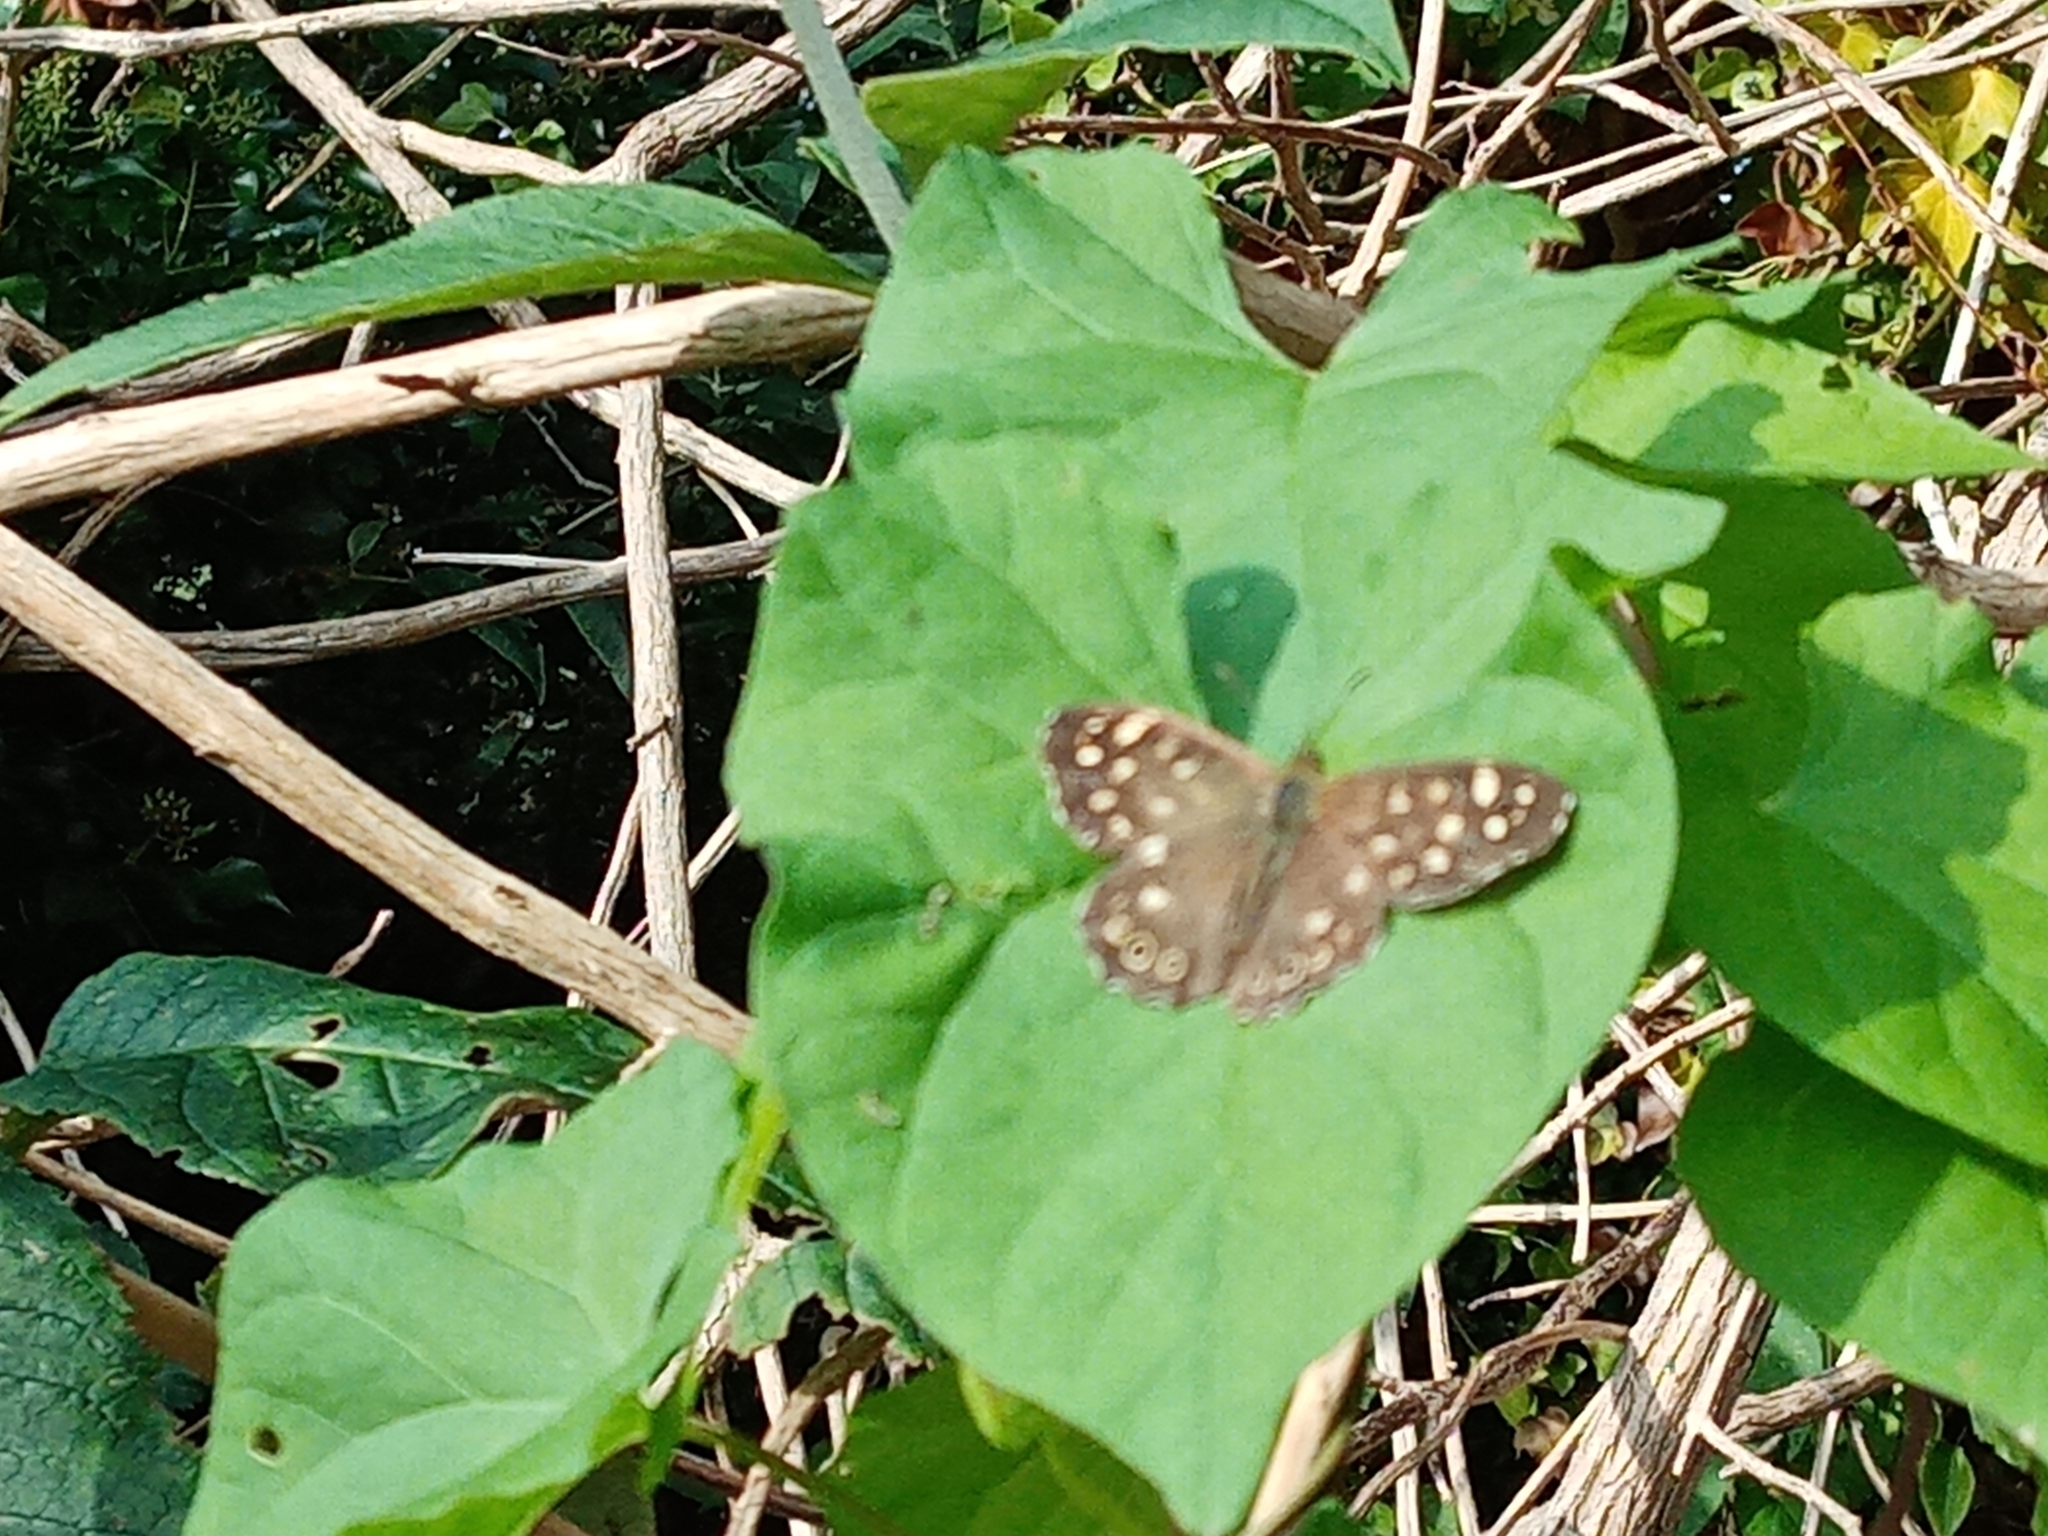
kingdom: Animalia
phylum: Arthropoda
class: Insecta
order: Lepidoptera
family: Nymphalidae
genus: Pararge
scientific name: Pararge aegeria
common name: Speckled wood
